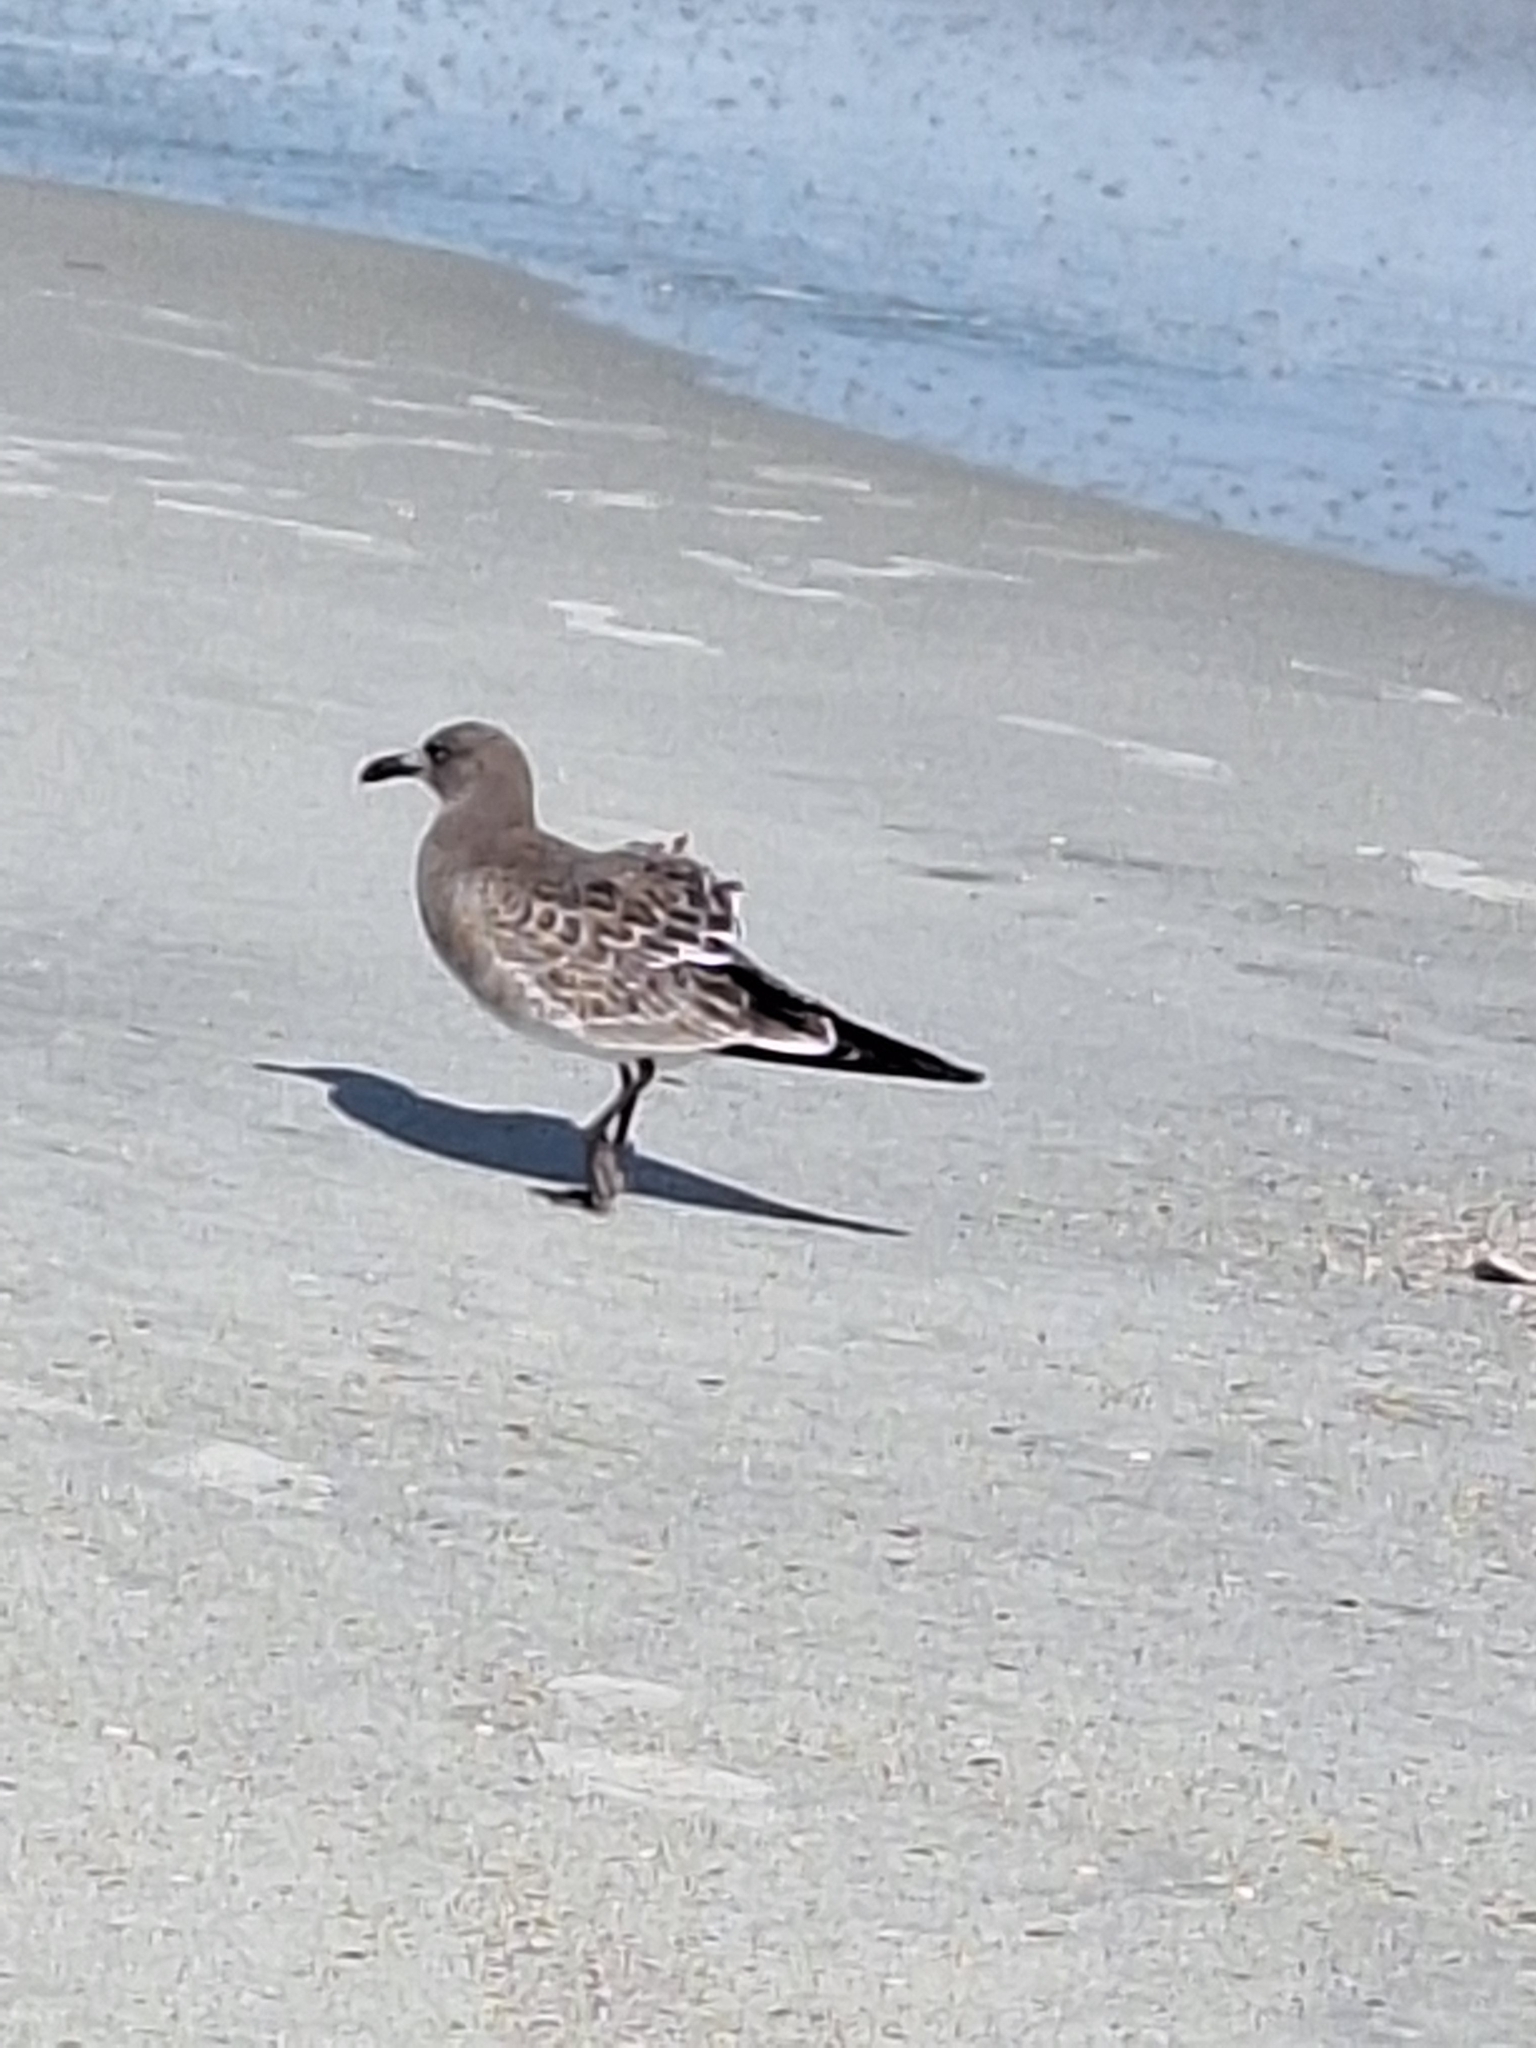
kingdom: Animalia
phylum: Chordata
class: Aves
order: Charadriiformes
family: Laridae
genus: Leucophaeus
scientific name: Leucophaeus atricilla
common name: Laughing gull
